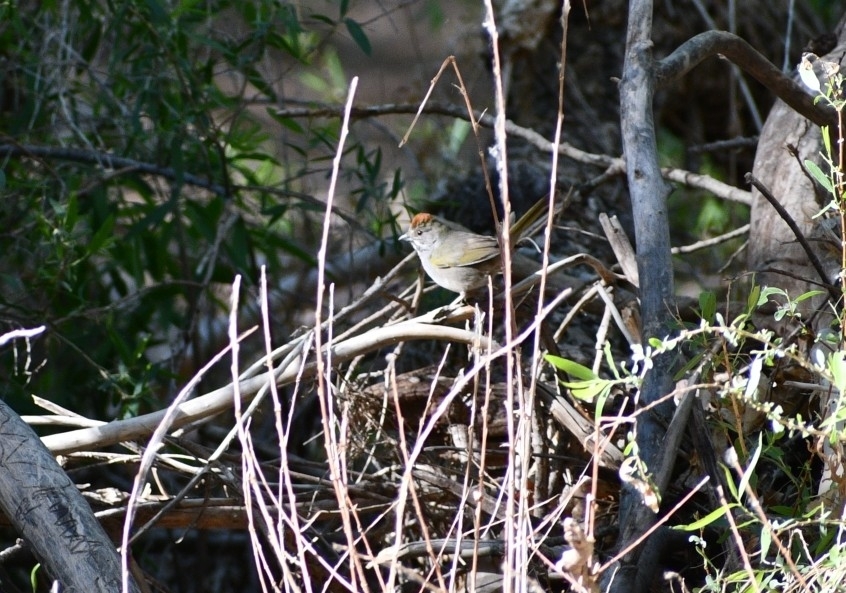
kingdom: Animalia
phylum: Chordata
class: Aves
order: Passeriformes
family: Passerellidae
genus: Pipilo
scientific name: Pipilo chlorurus
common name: Green-tailed towhee
